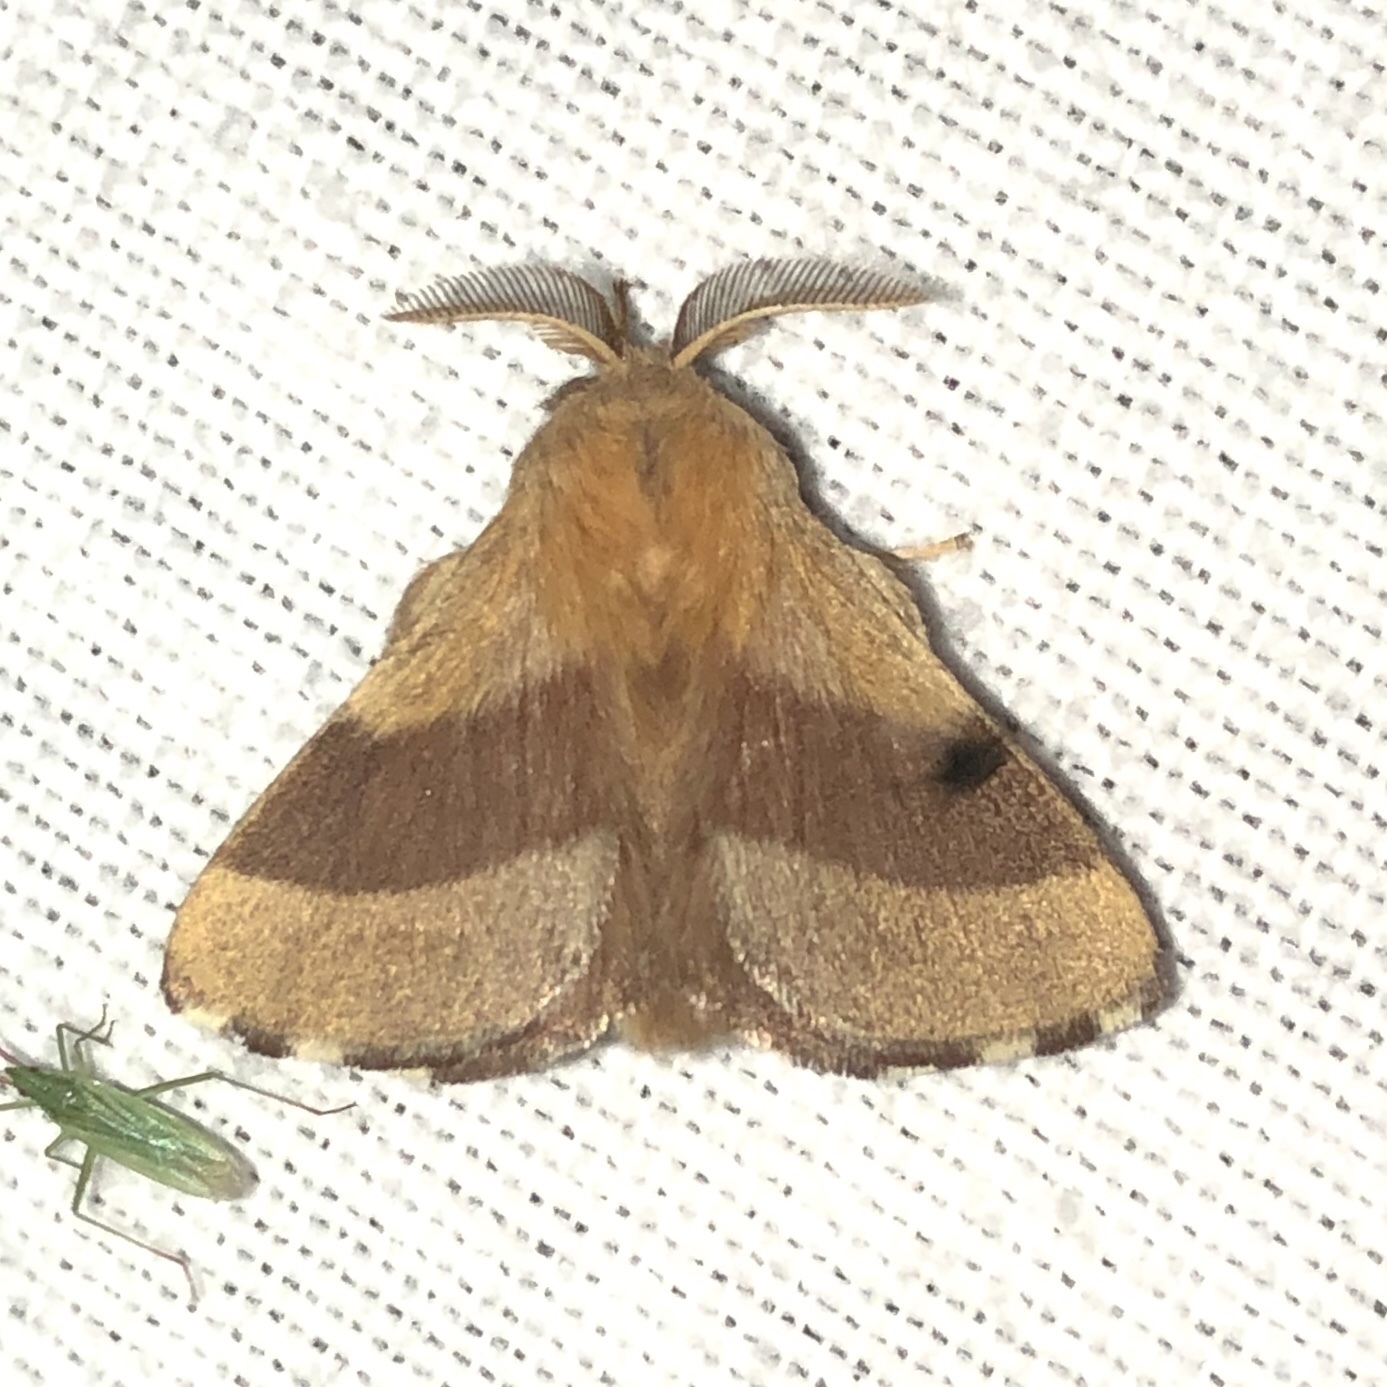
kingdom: Animalia
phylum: Arthropoda
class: Insecta
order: Lepidoptera
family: Lasiocampidae
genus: Malacosoma
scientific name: Malacosoma disstria
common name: Forest tent caterpillar
